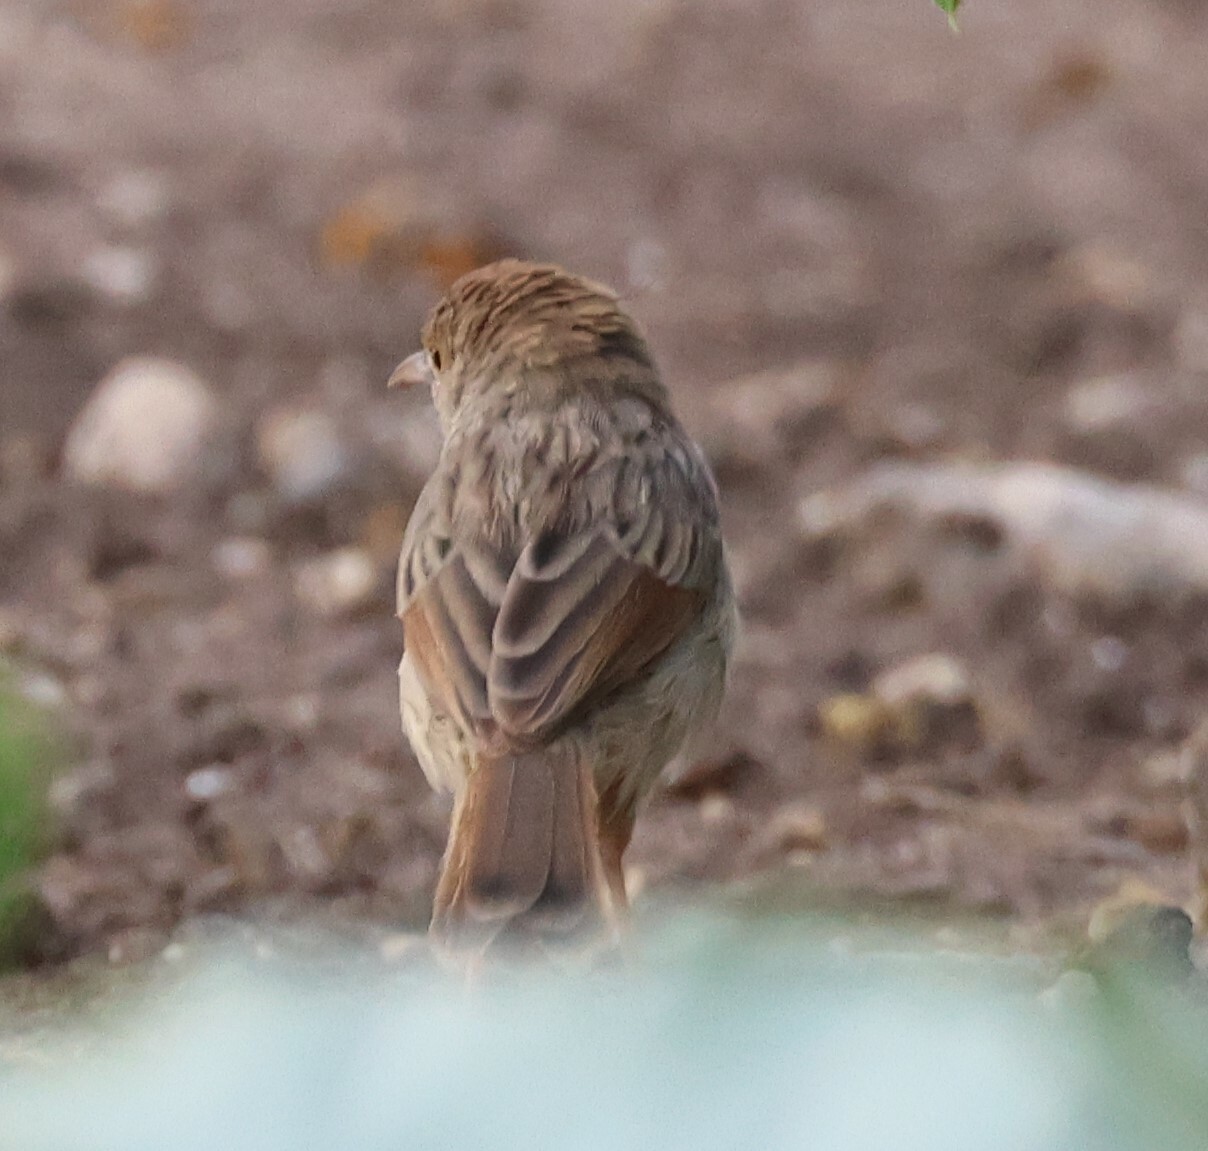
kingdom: Animalia
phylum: Chordata
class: Aves
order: Passeriformes
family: Cisticolidae
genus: Cisticola
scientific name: Cisticola chiniana
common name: Rattling cisticola
